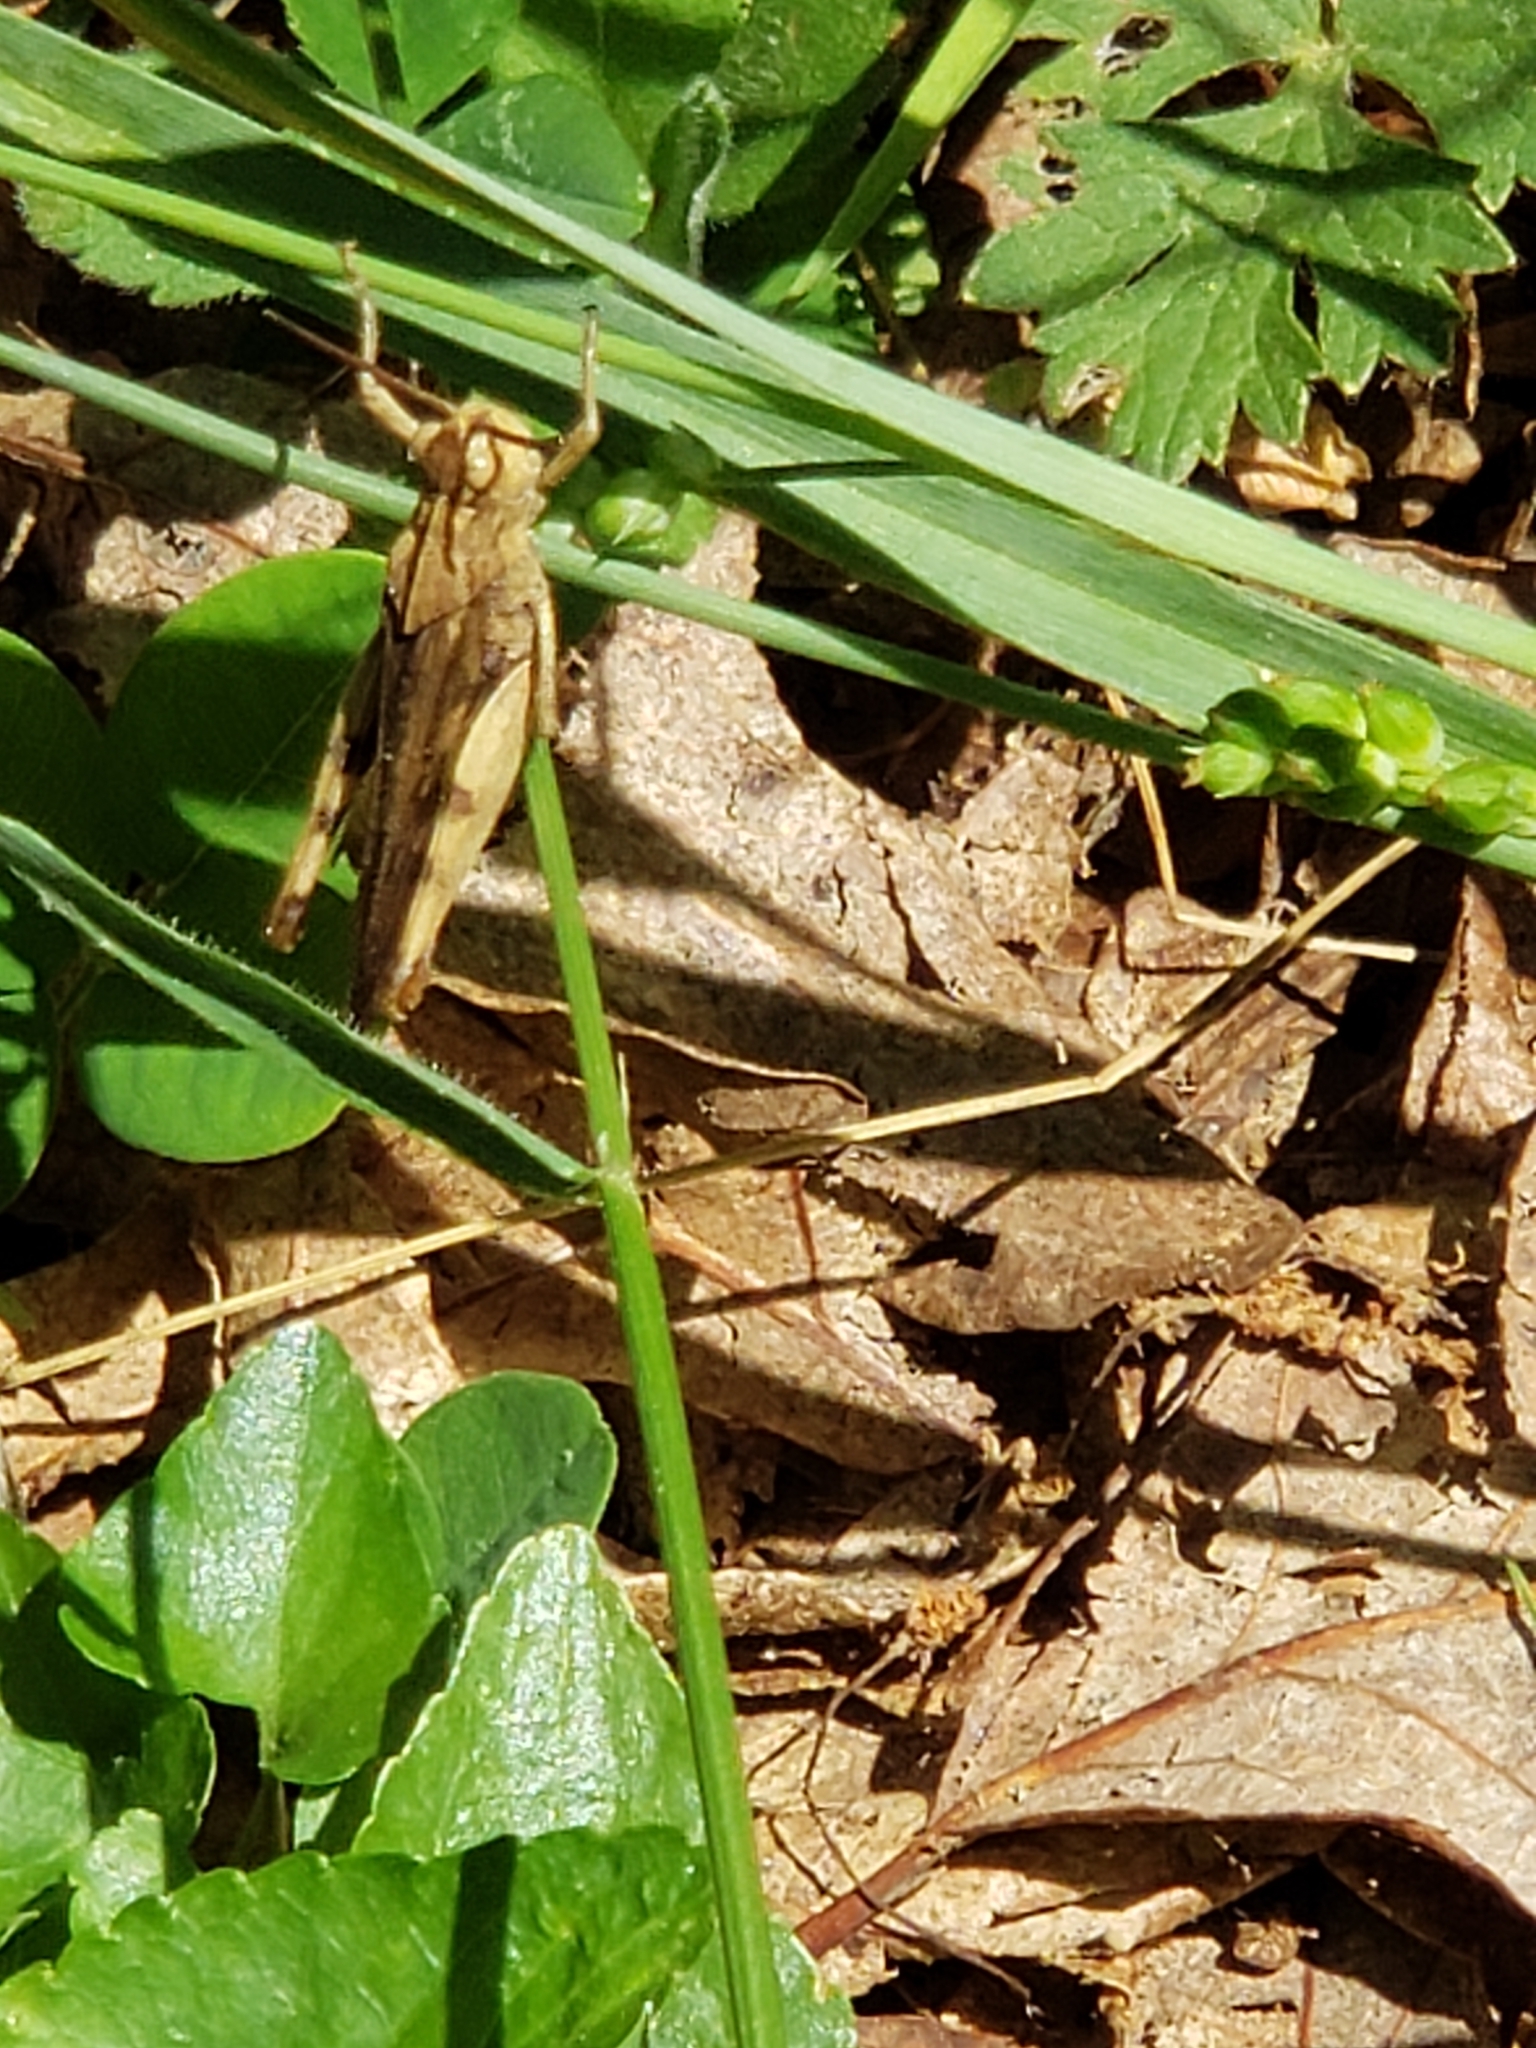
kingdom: Animalia
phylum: Arthropoda
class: Insecta
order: Orthoptera
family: Acrididae
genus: Chortophaga
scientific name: Chortophaga viridifasciata
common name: Green-striped grasshopper
